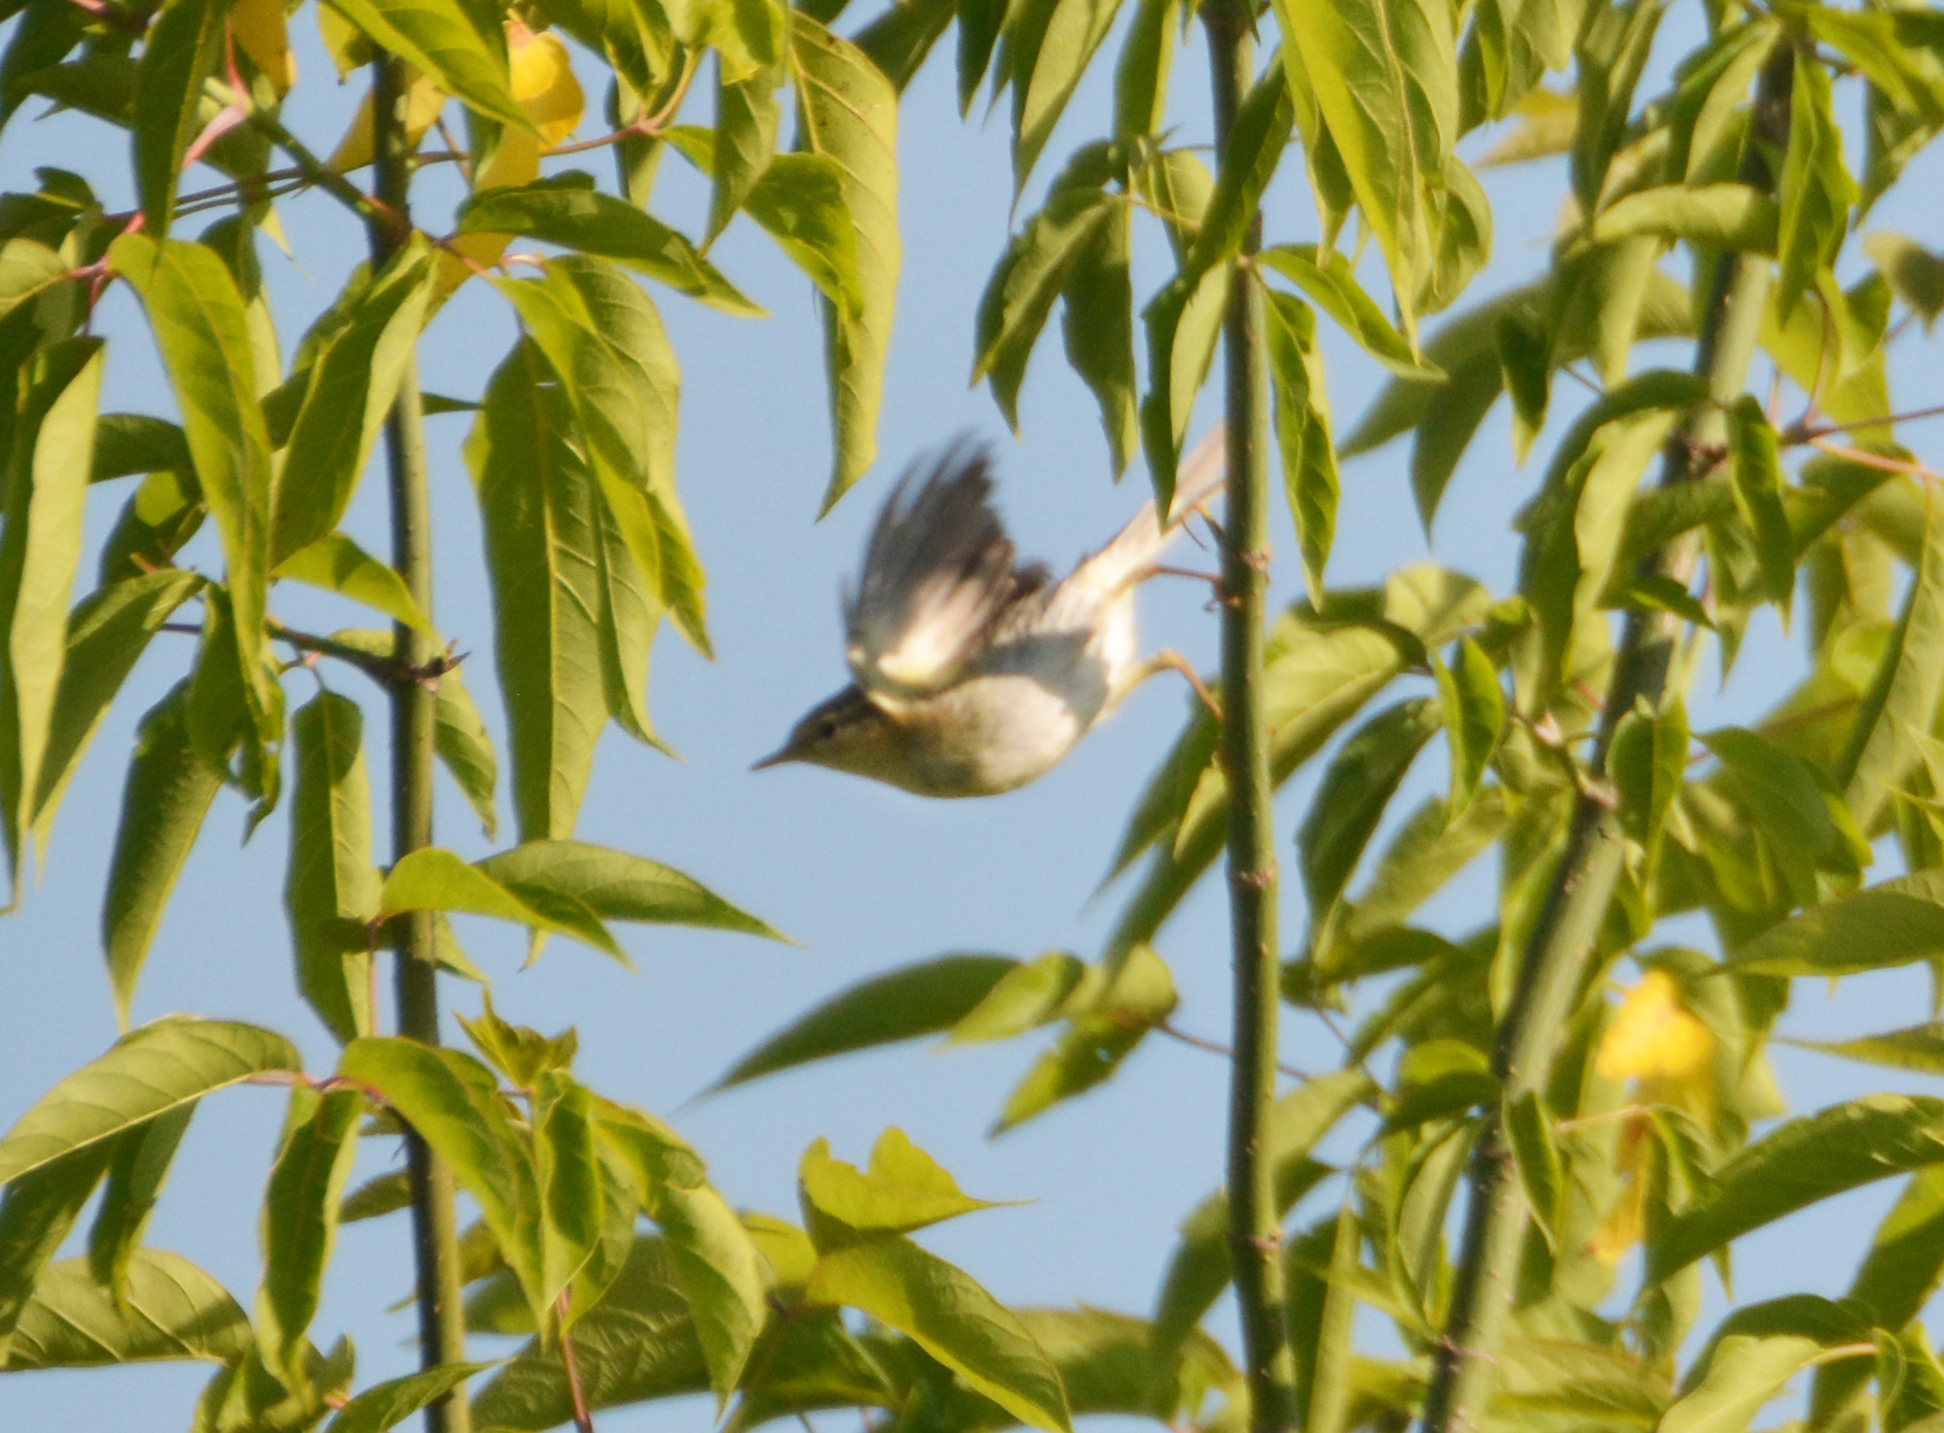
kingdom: Animalia
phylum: Chordata
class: Aves
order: Passeriformes
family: Phylloscopidae
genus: Phylloscopus
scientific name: Phylloscopus trochilus
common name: Willow warbler
